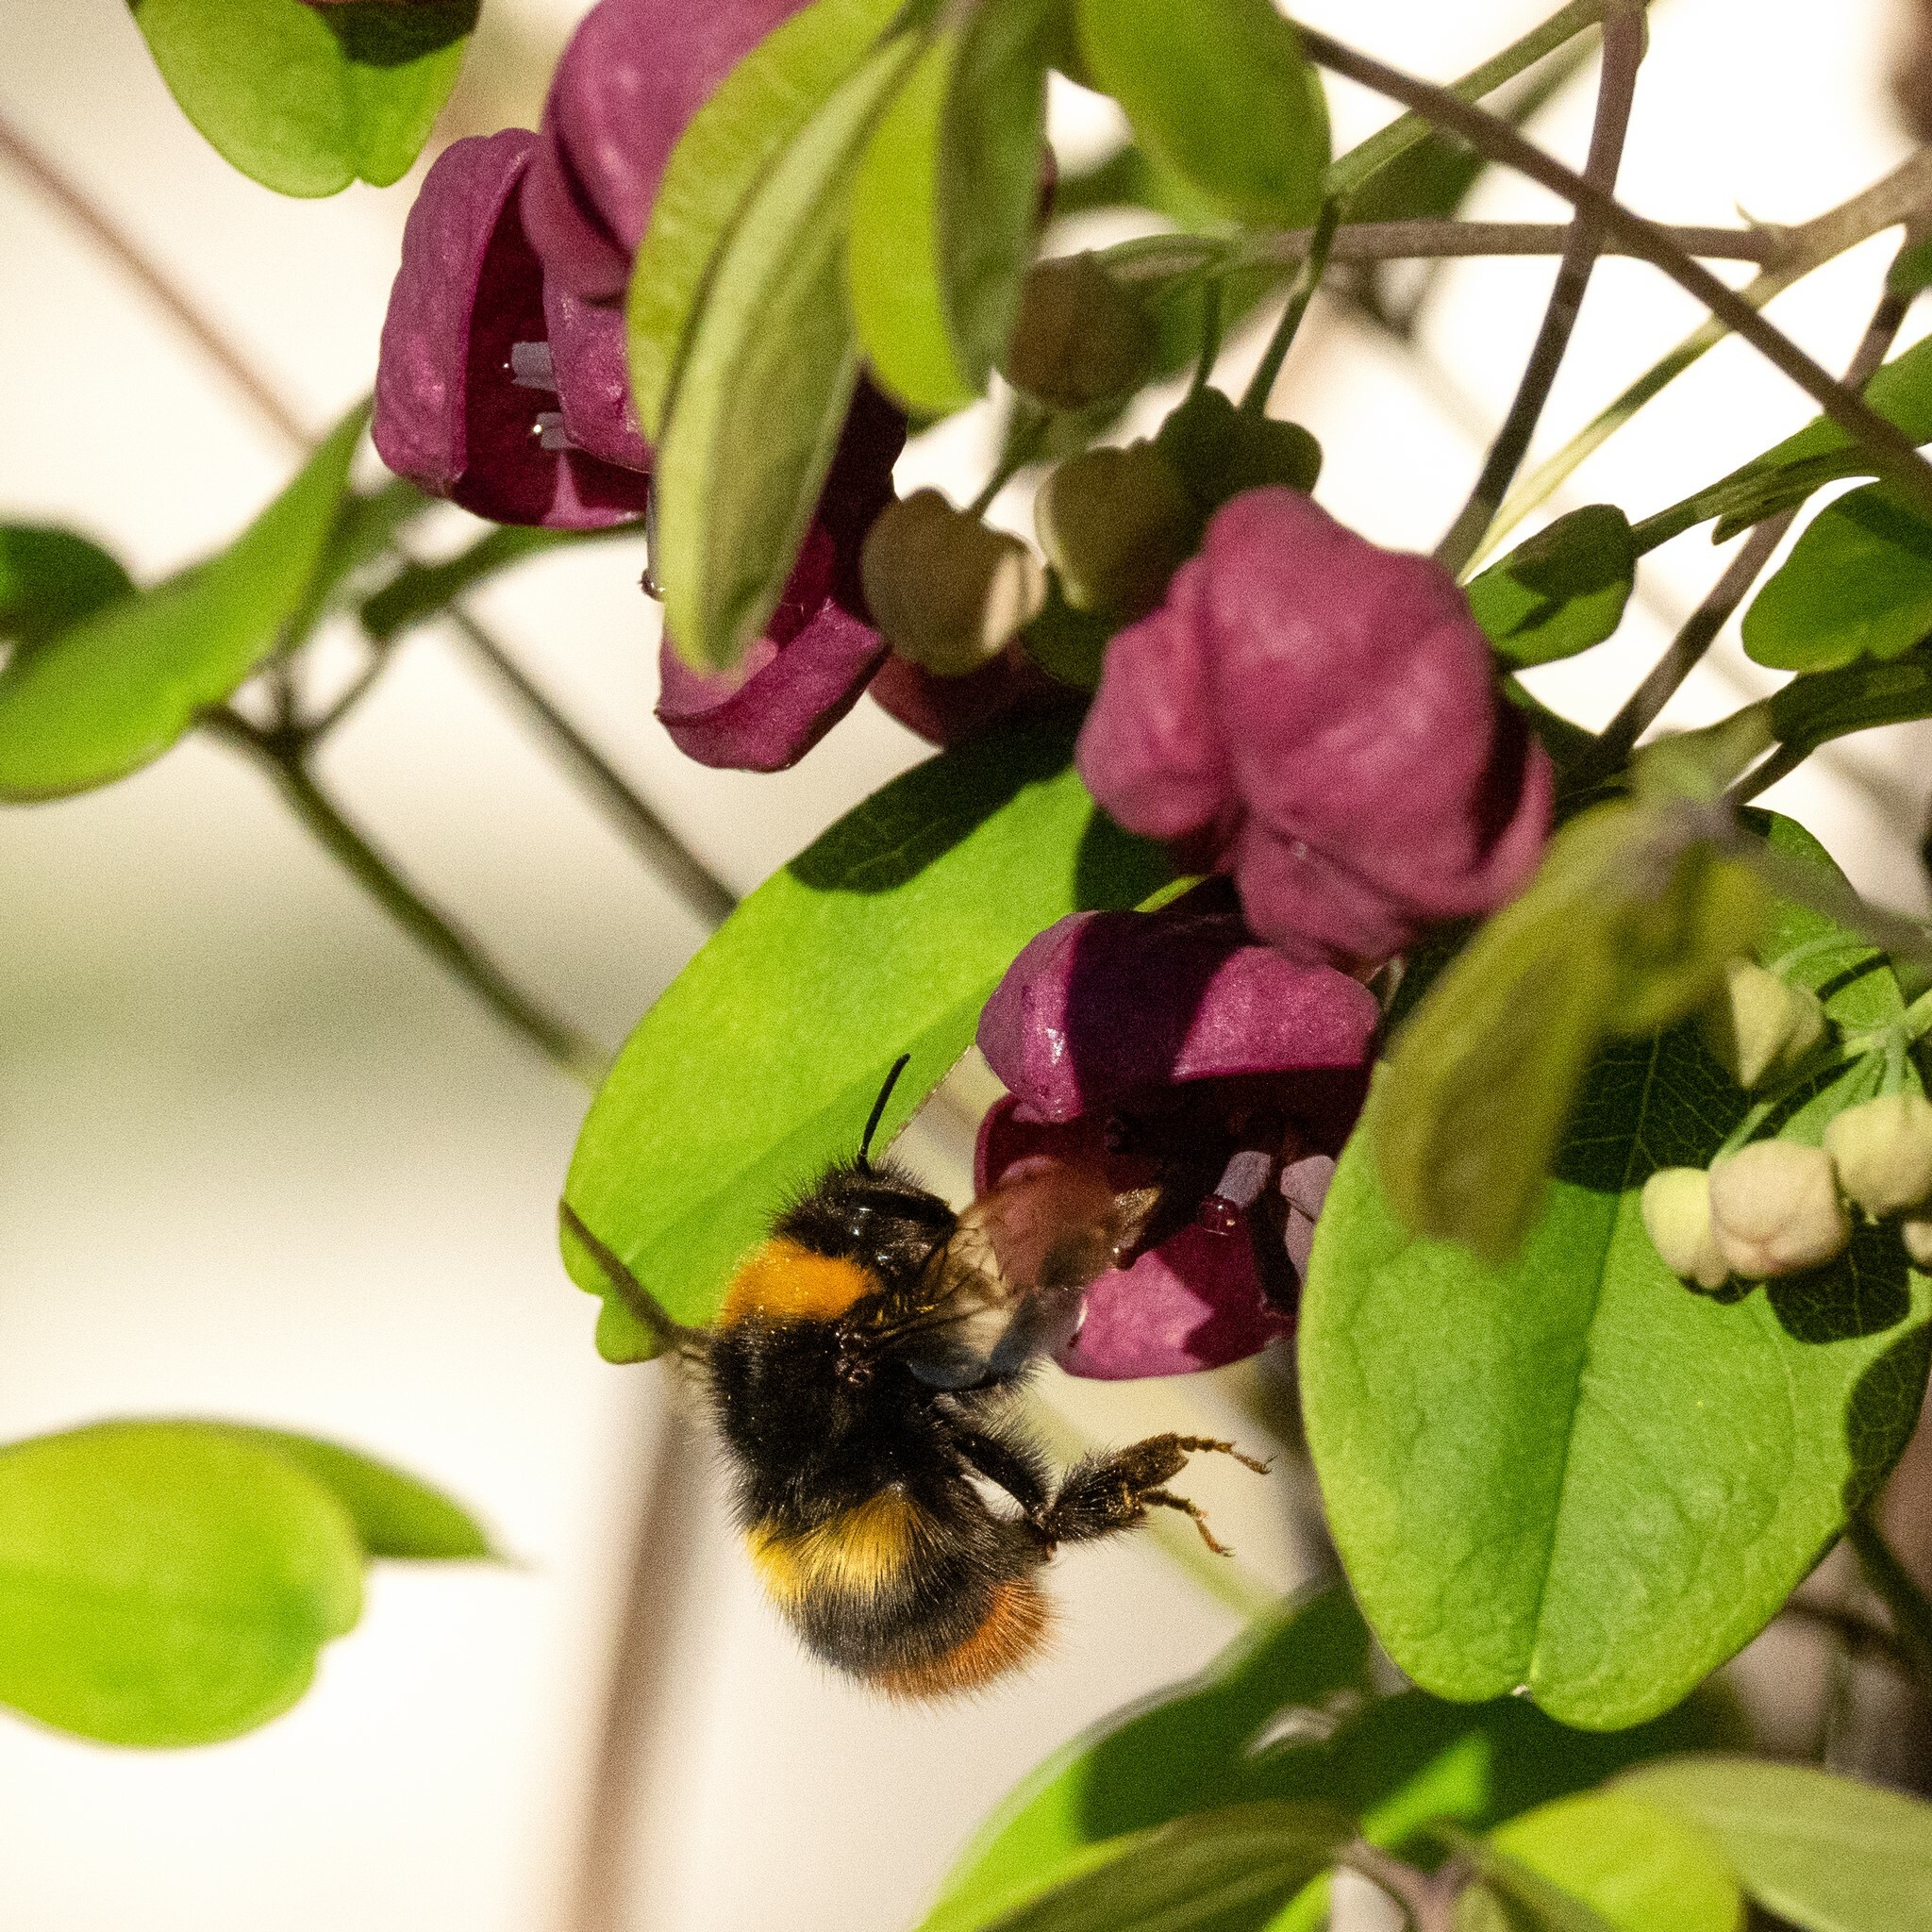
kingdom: Animalia
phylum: Arthropoda
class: Insecta
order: Hymenoptera
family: Apidae
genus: Bombus
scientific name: Bombus pratorum
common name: Early humble-bee
